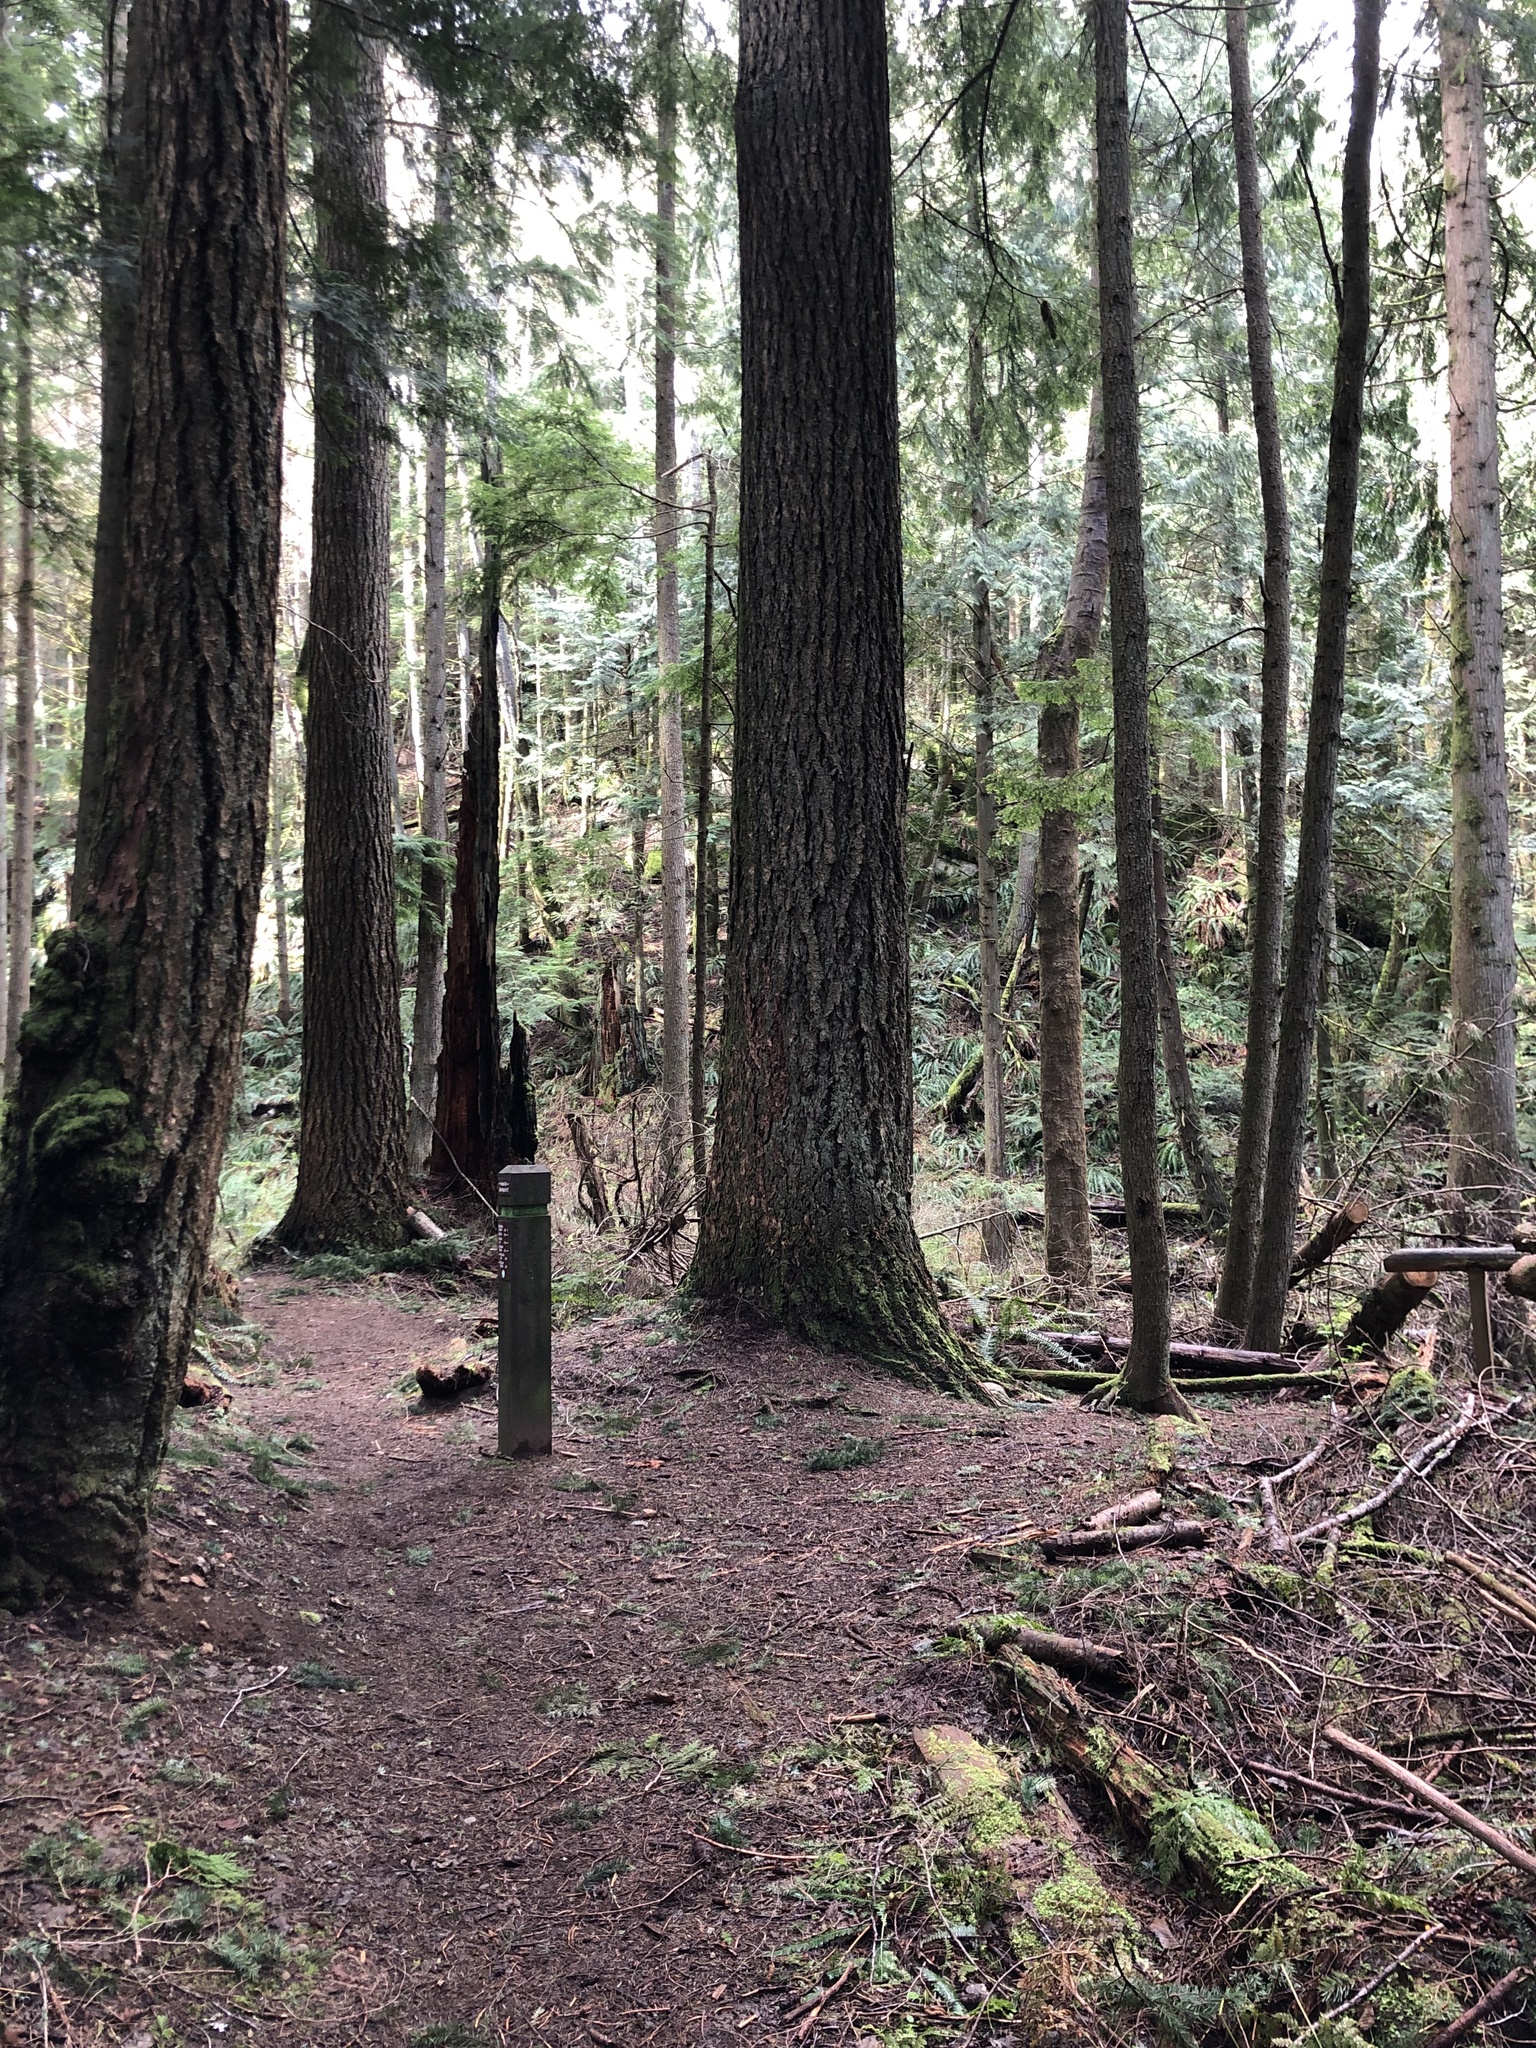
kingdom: Plantae
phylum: Tracheophyta
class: Pinopsida
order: Pinales
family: Pinaceae
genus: Pseudotsuga
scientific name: Pseudotsuga menziesii
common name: Douglas fir
